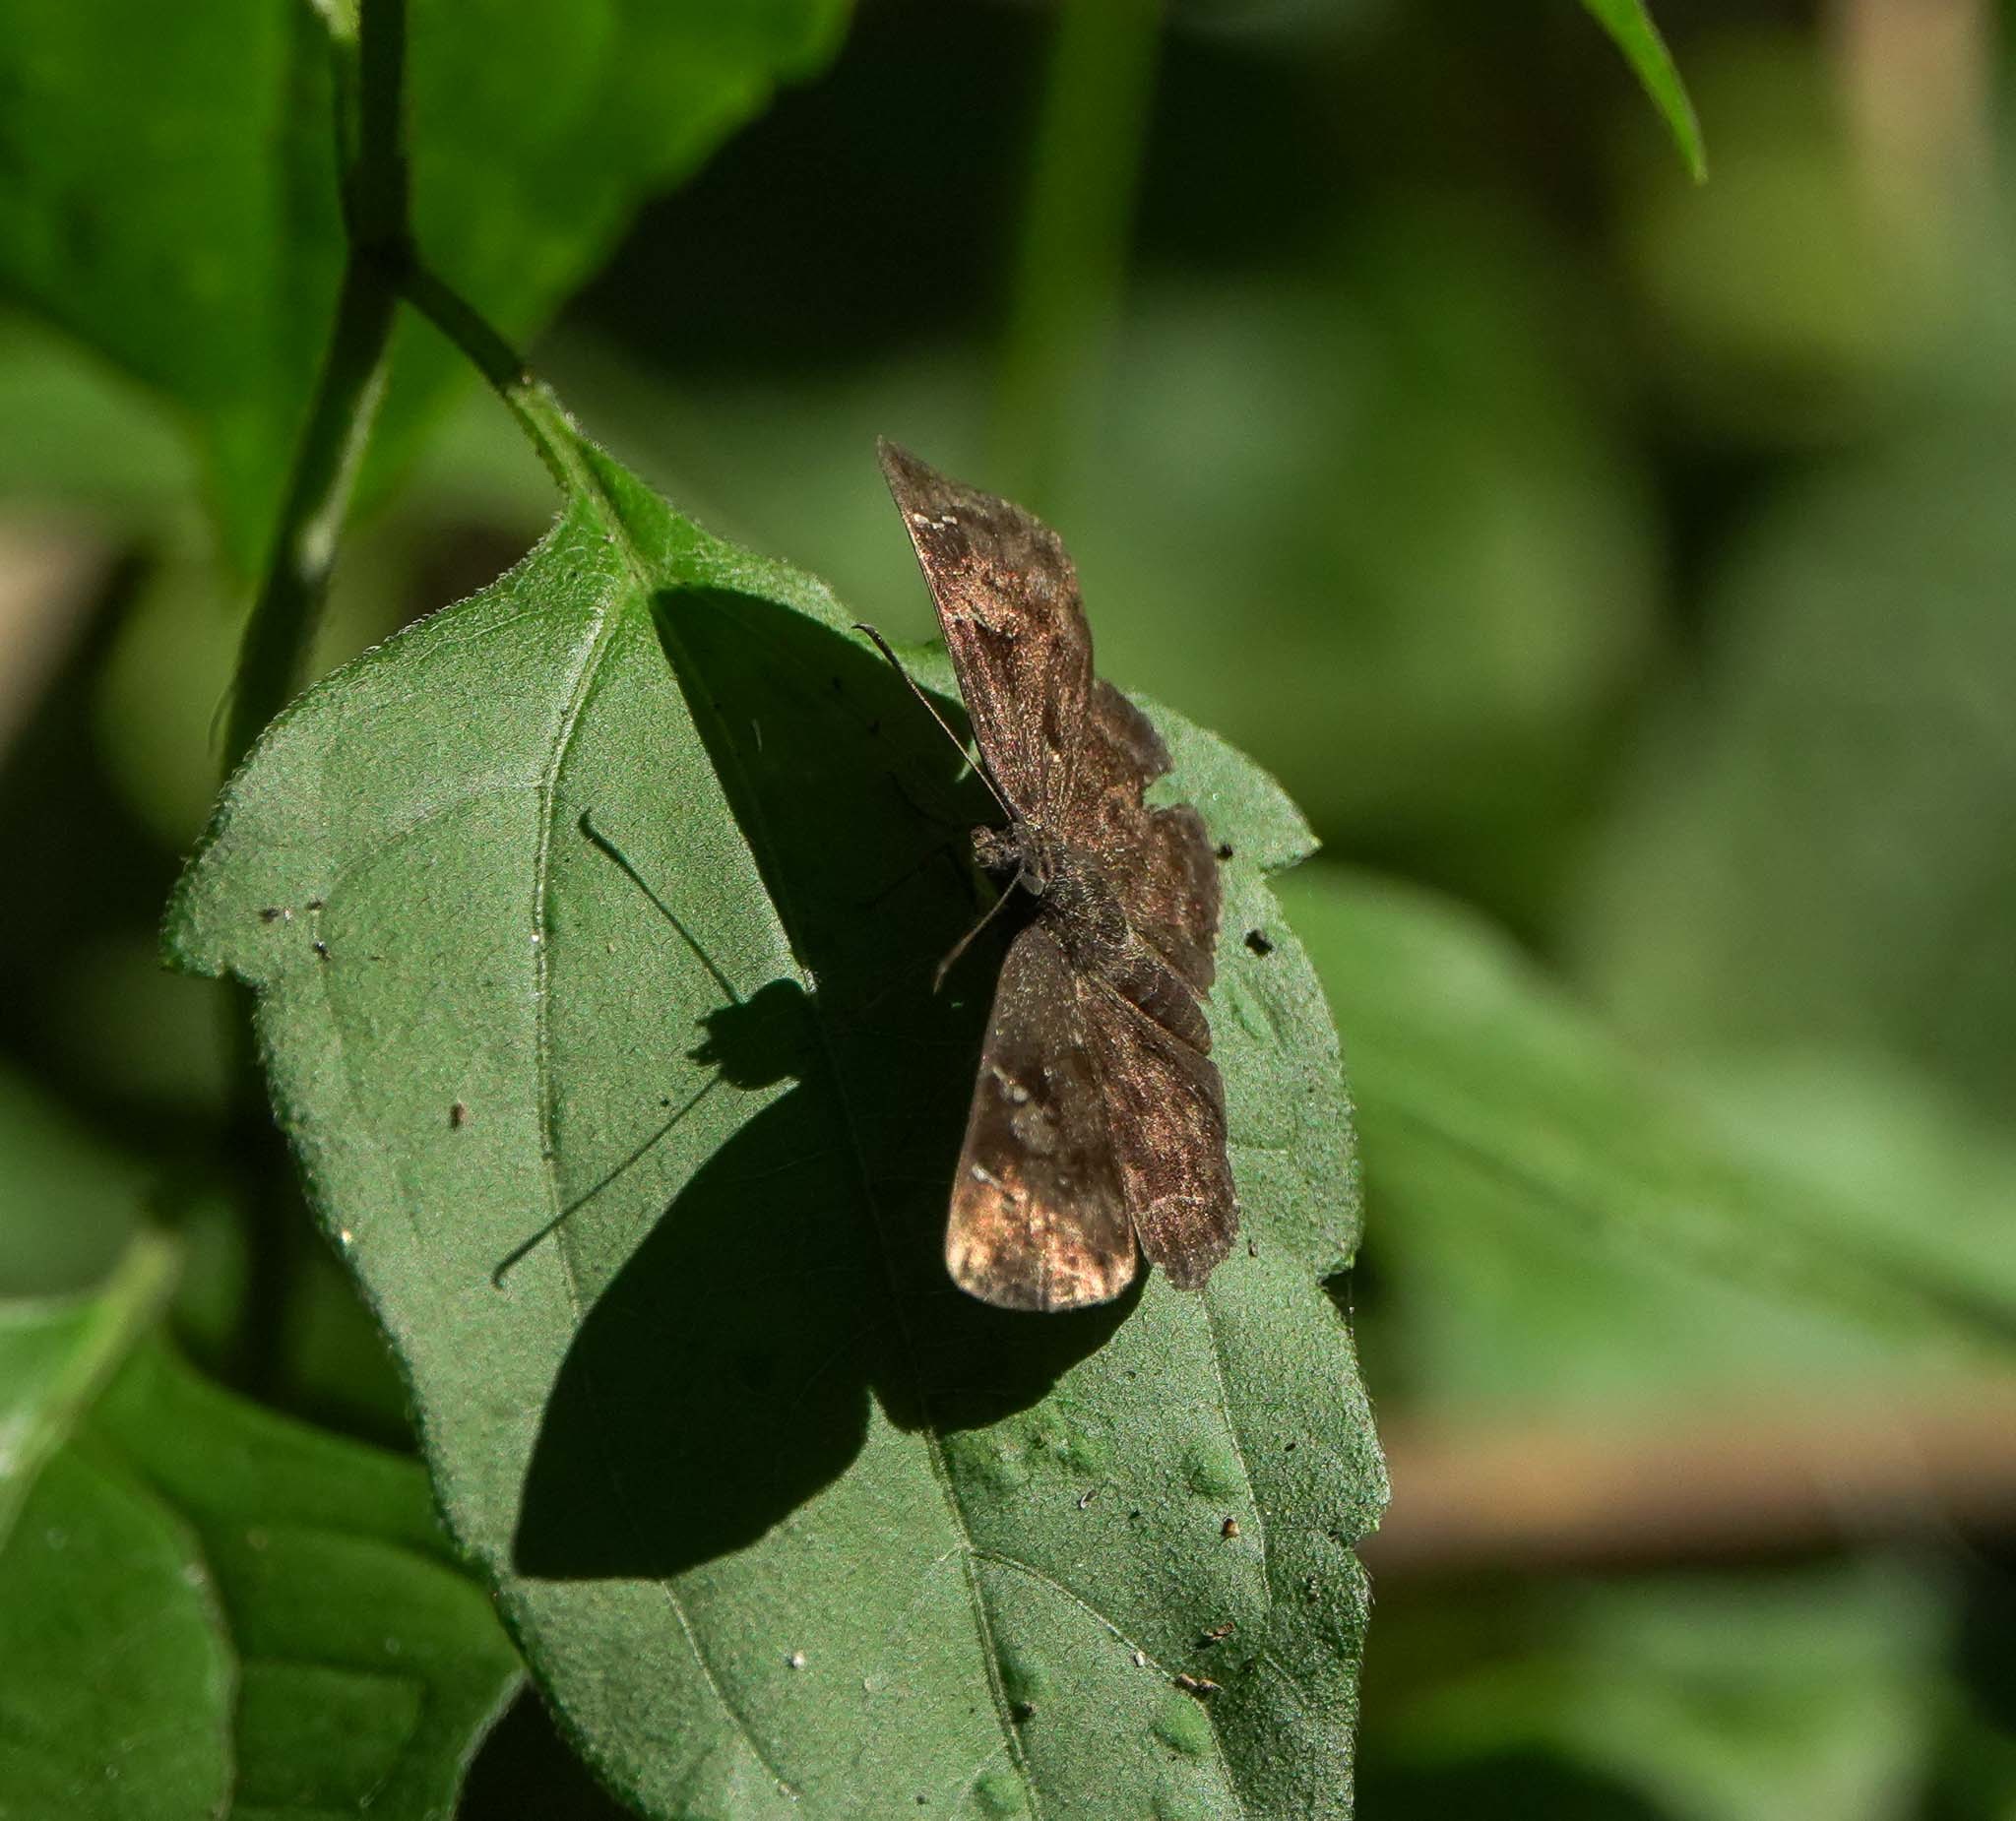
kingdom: Animalia
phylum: Arthropoda
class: Insecta
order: Lepidoptera
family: Hesperiidae
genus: Sarangesa
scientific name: Sarangesa dasahara
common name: Common small flat
